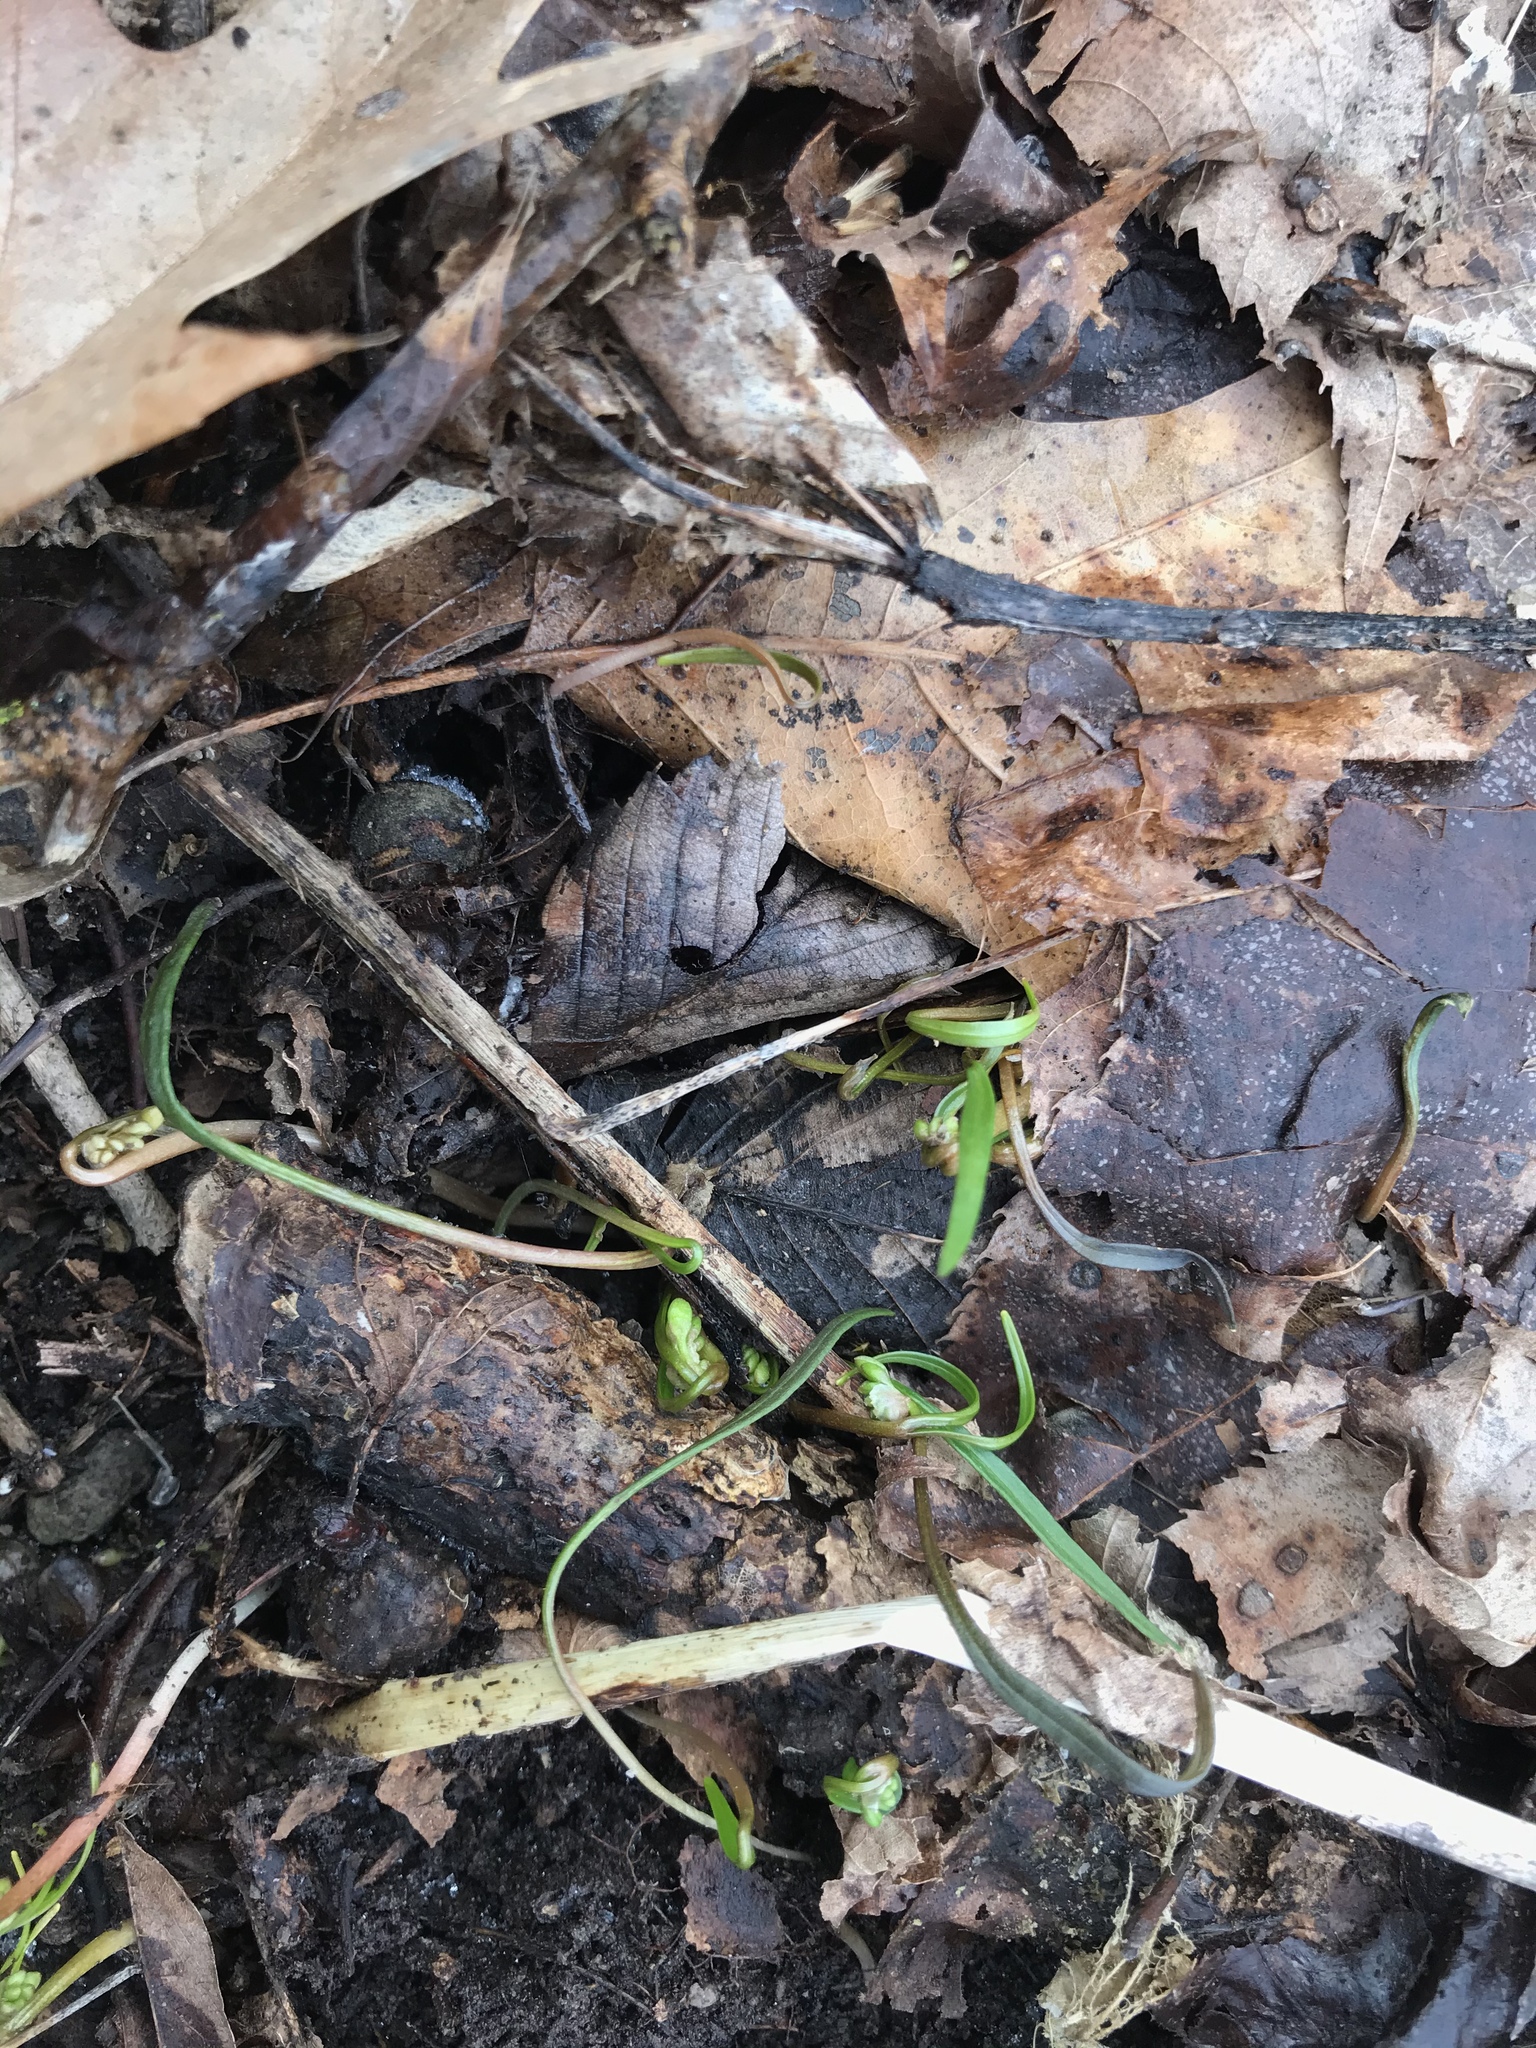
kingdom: Plantae
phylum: Tracheophyta
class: Magnoliopsida
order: Caryophyllales
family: Montiaceae
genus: Claytonia
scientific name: Claytonia virginica
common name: Virginia springbeauty
